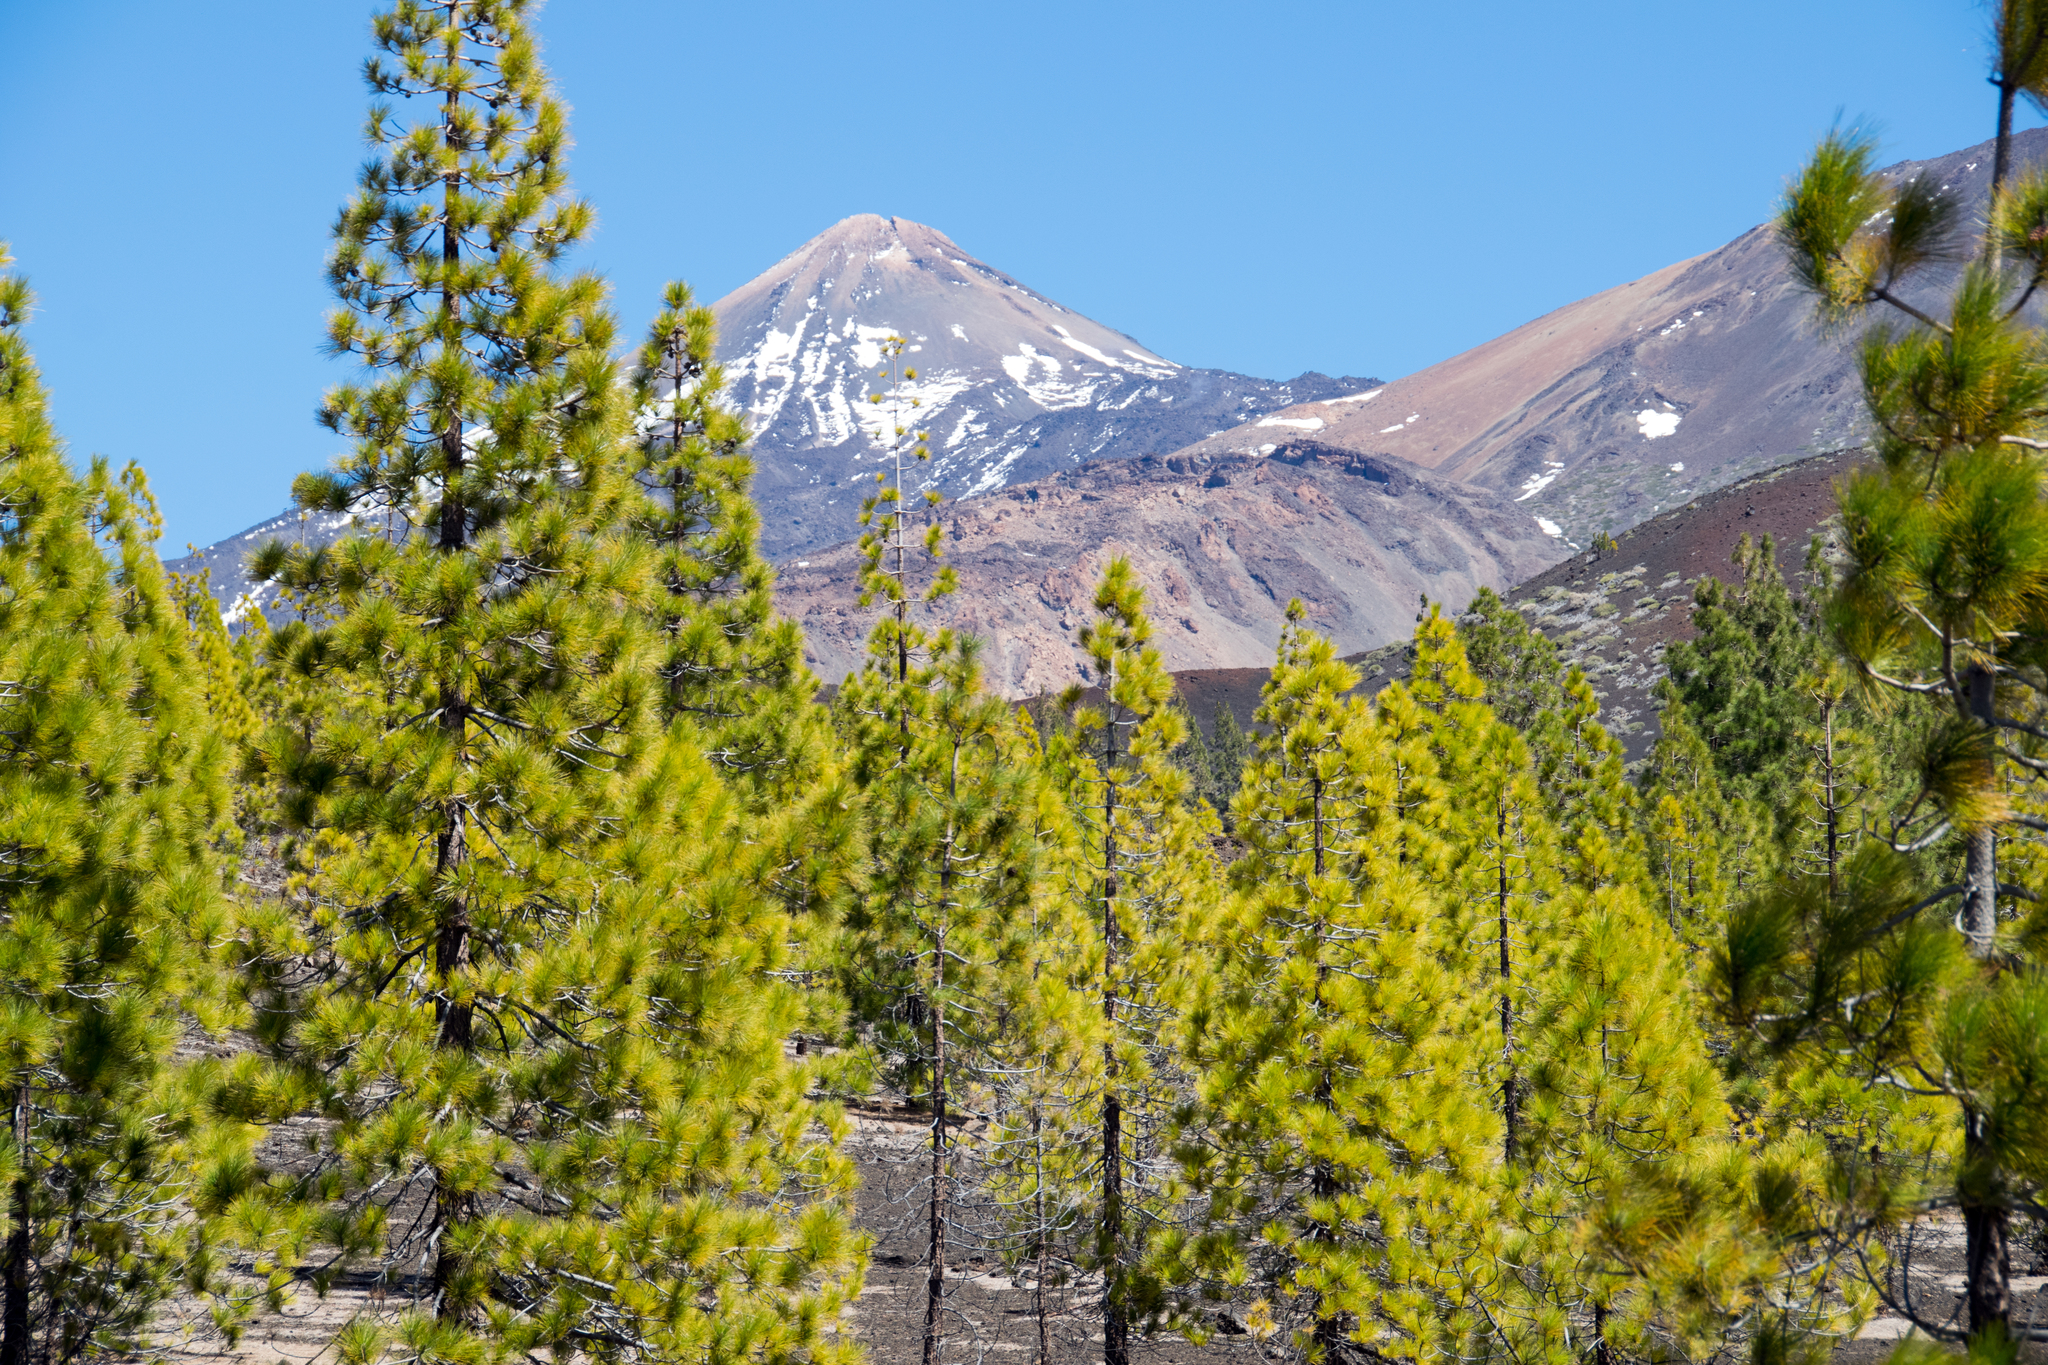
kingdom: Plantae
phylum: Tracheophyta
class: Pinopsida
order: Pinales
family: Pinaceae
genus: Pinus
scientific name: Pinus canariensis
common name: Canary islands pine
